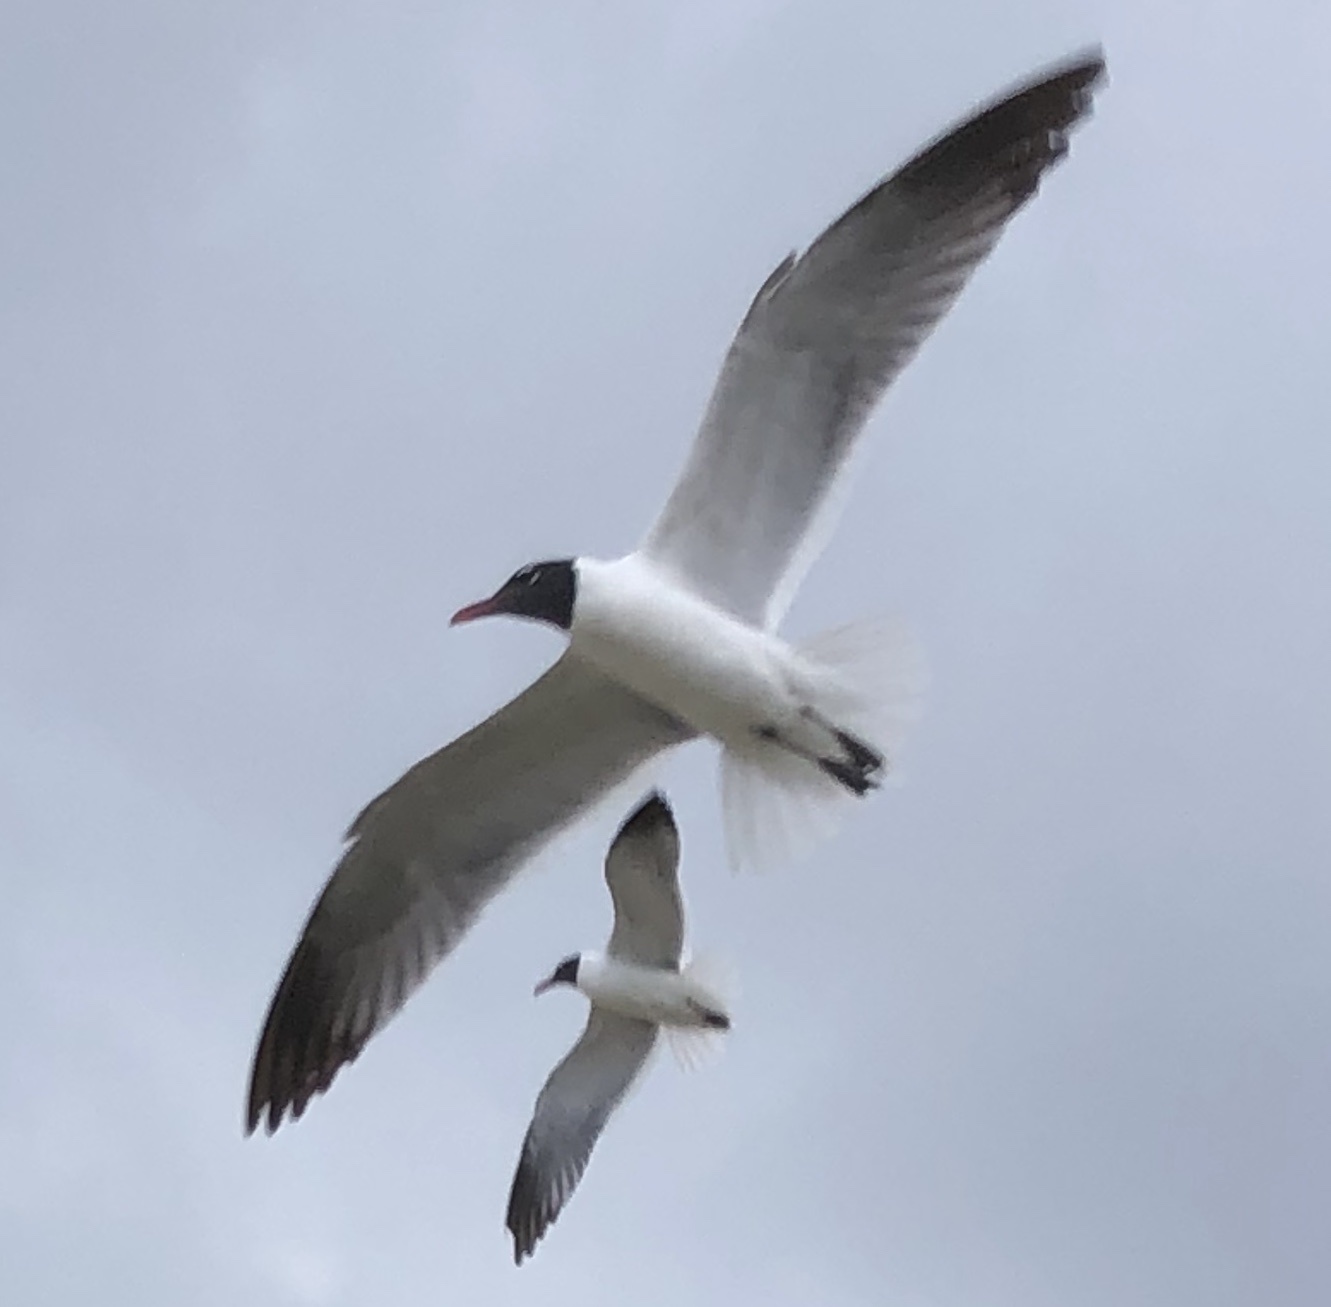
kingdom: Animalia
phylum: Chordata
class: Aves
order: Charadriiformes
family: Laridae
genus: Leucophaeus
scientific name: Leucophaeus atricilla
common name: Laughing gull
